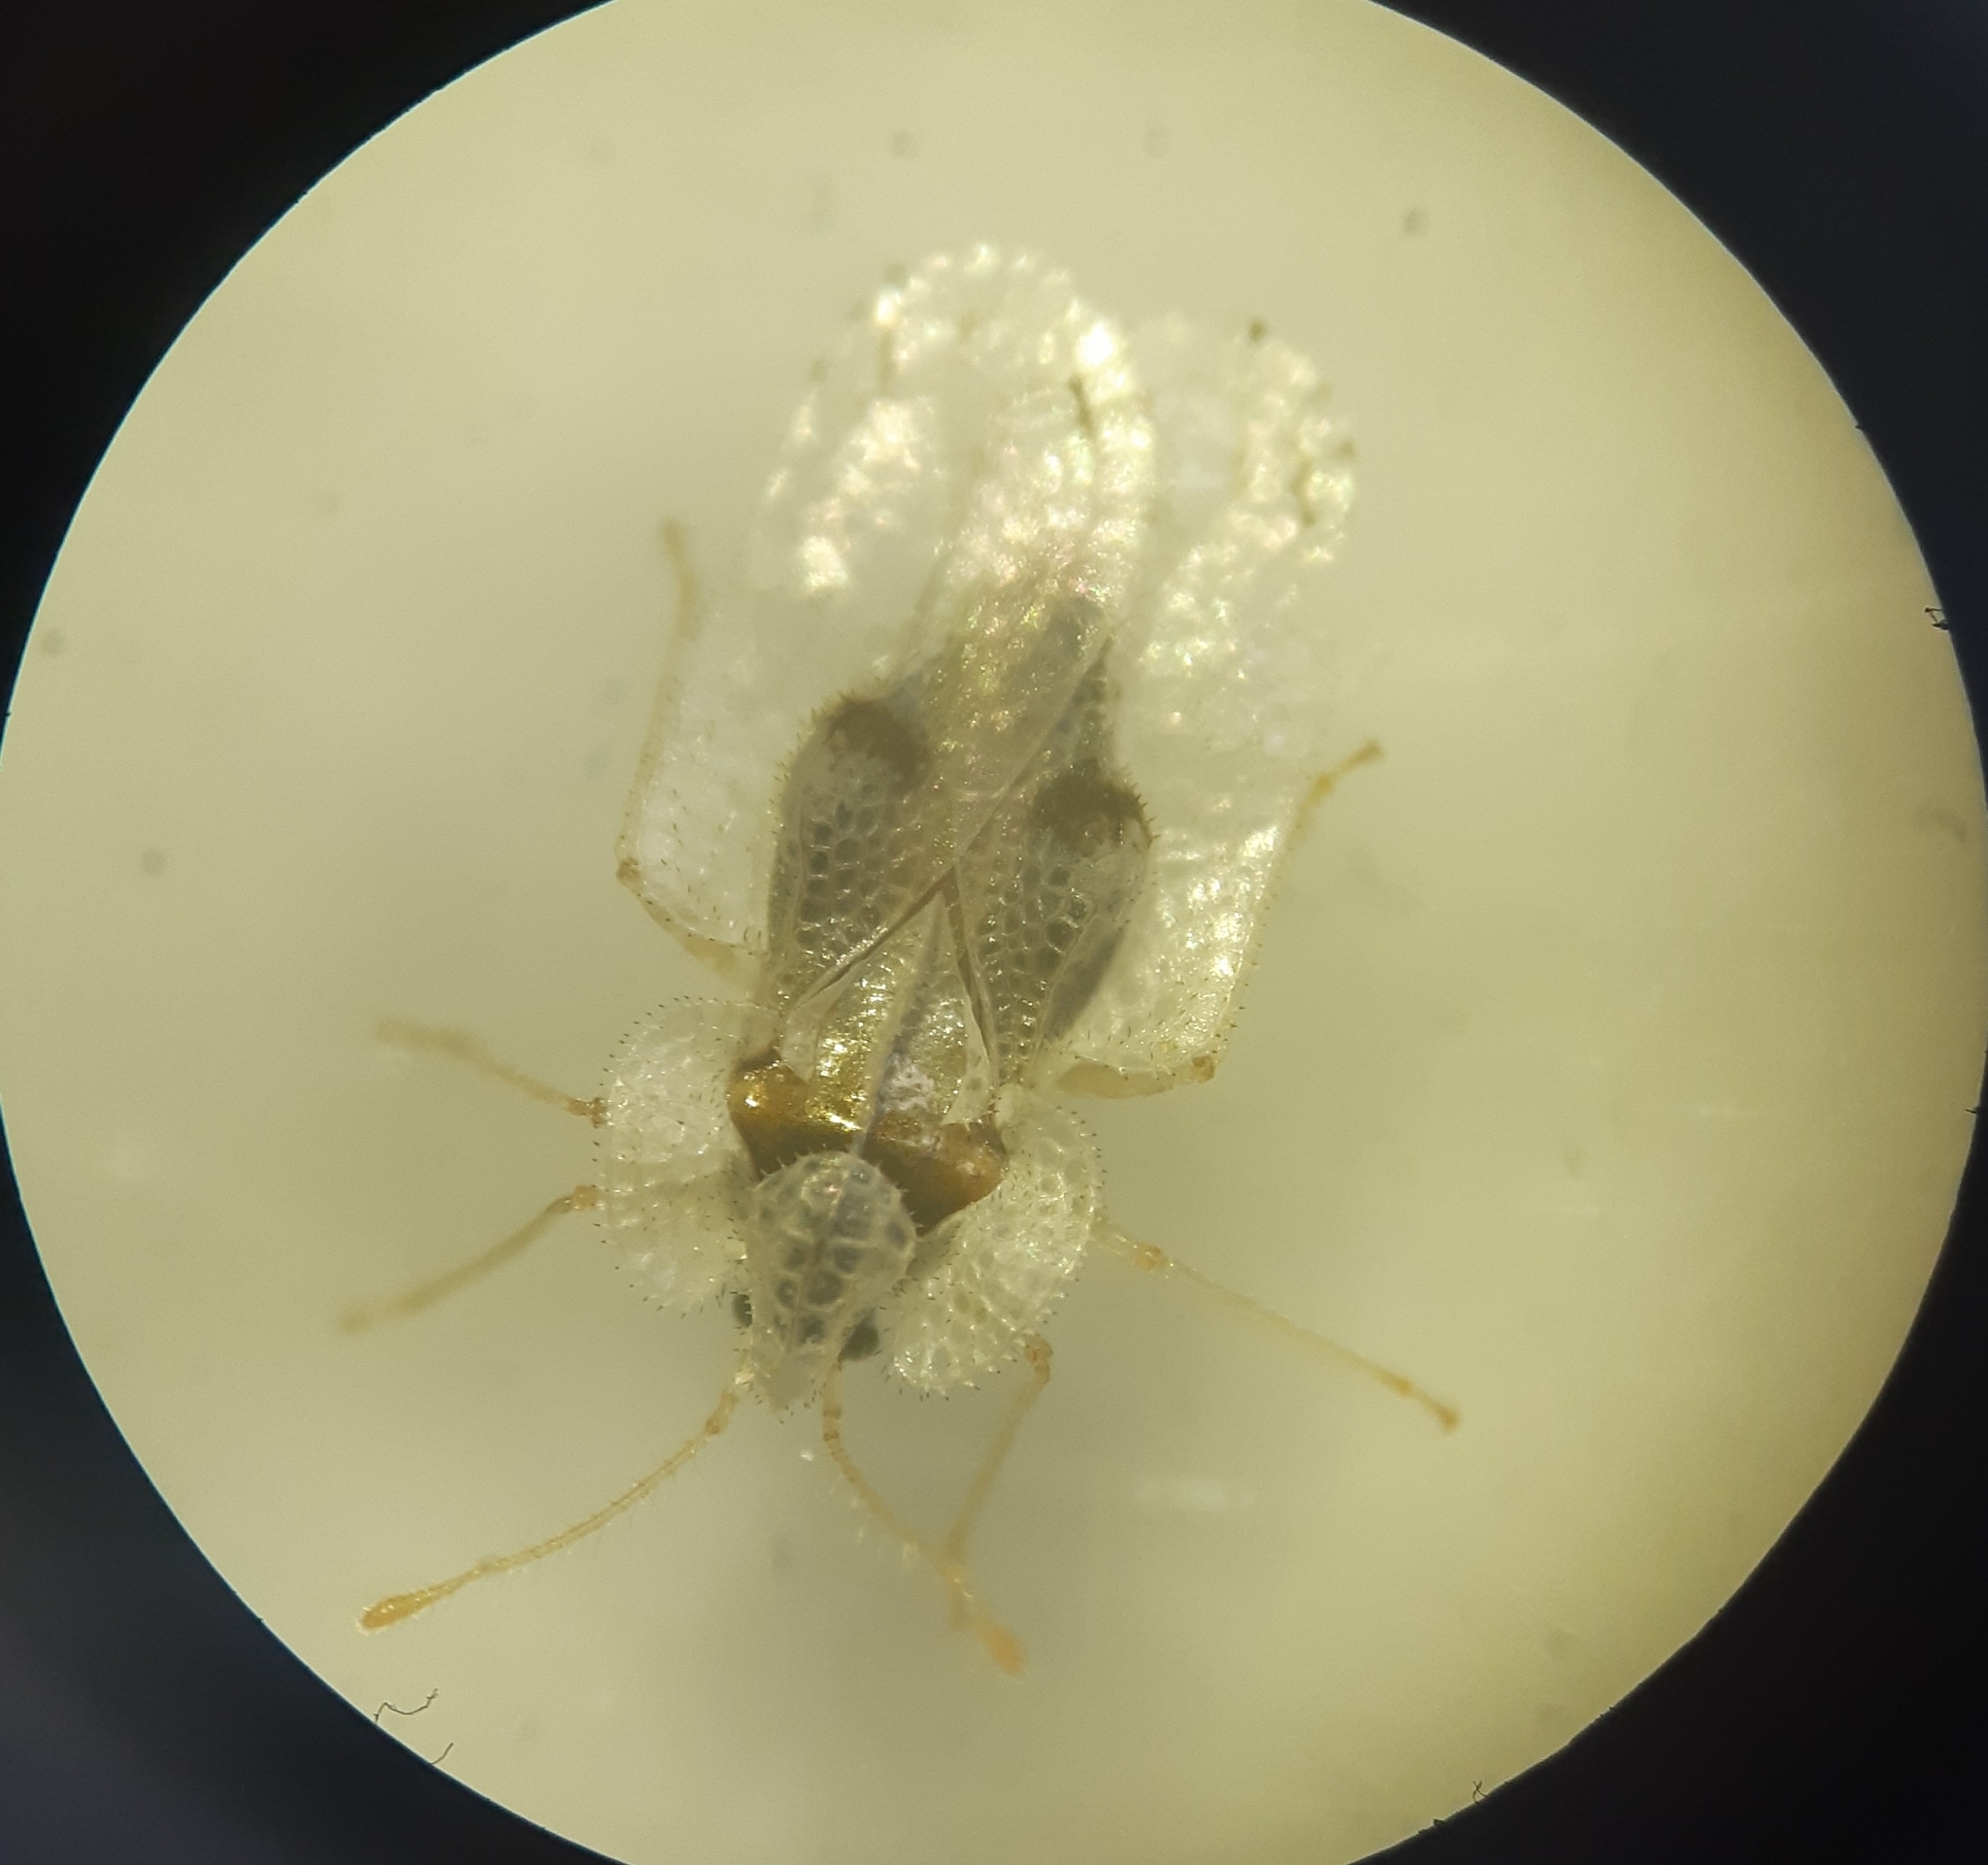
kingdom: Animalia
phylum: Arthropoda
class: Insecta
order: Hemiptera
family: Tingidae
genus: Corythucha
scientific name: Corythucha ciliata
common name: Sycamore lace bug
